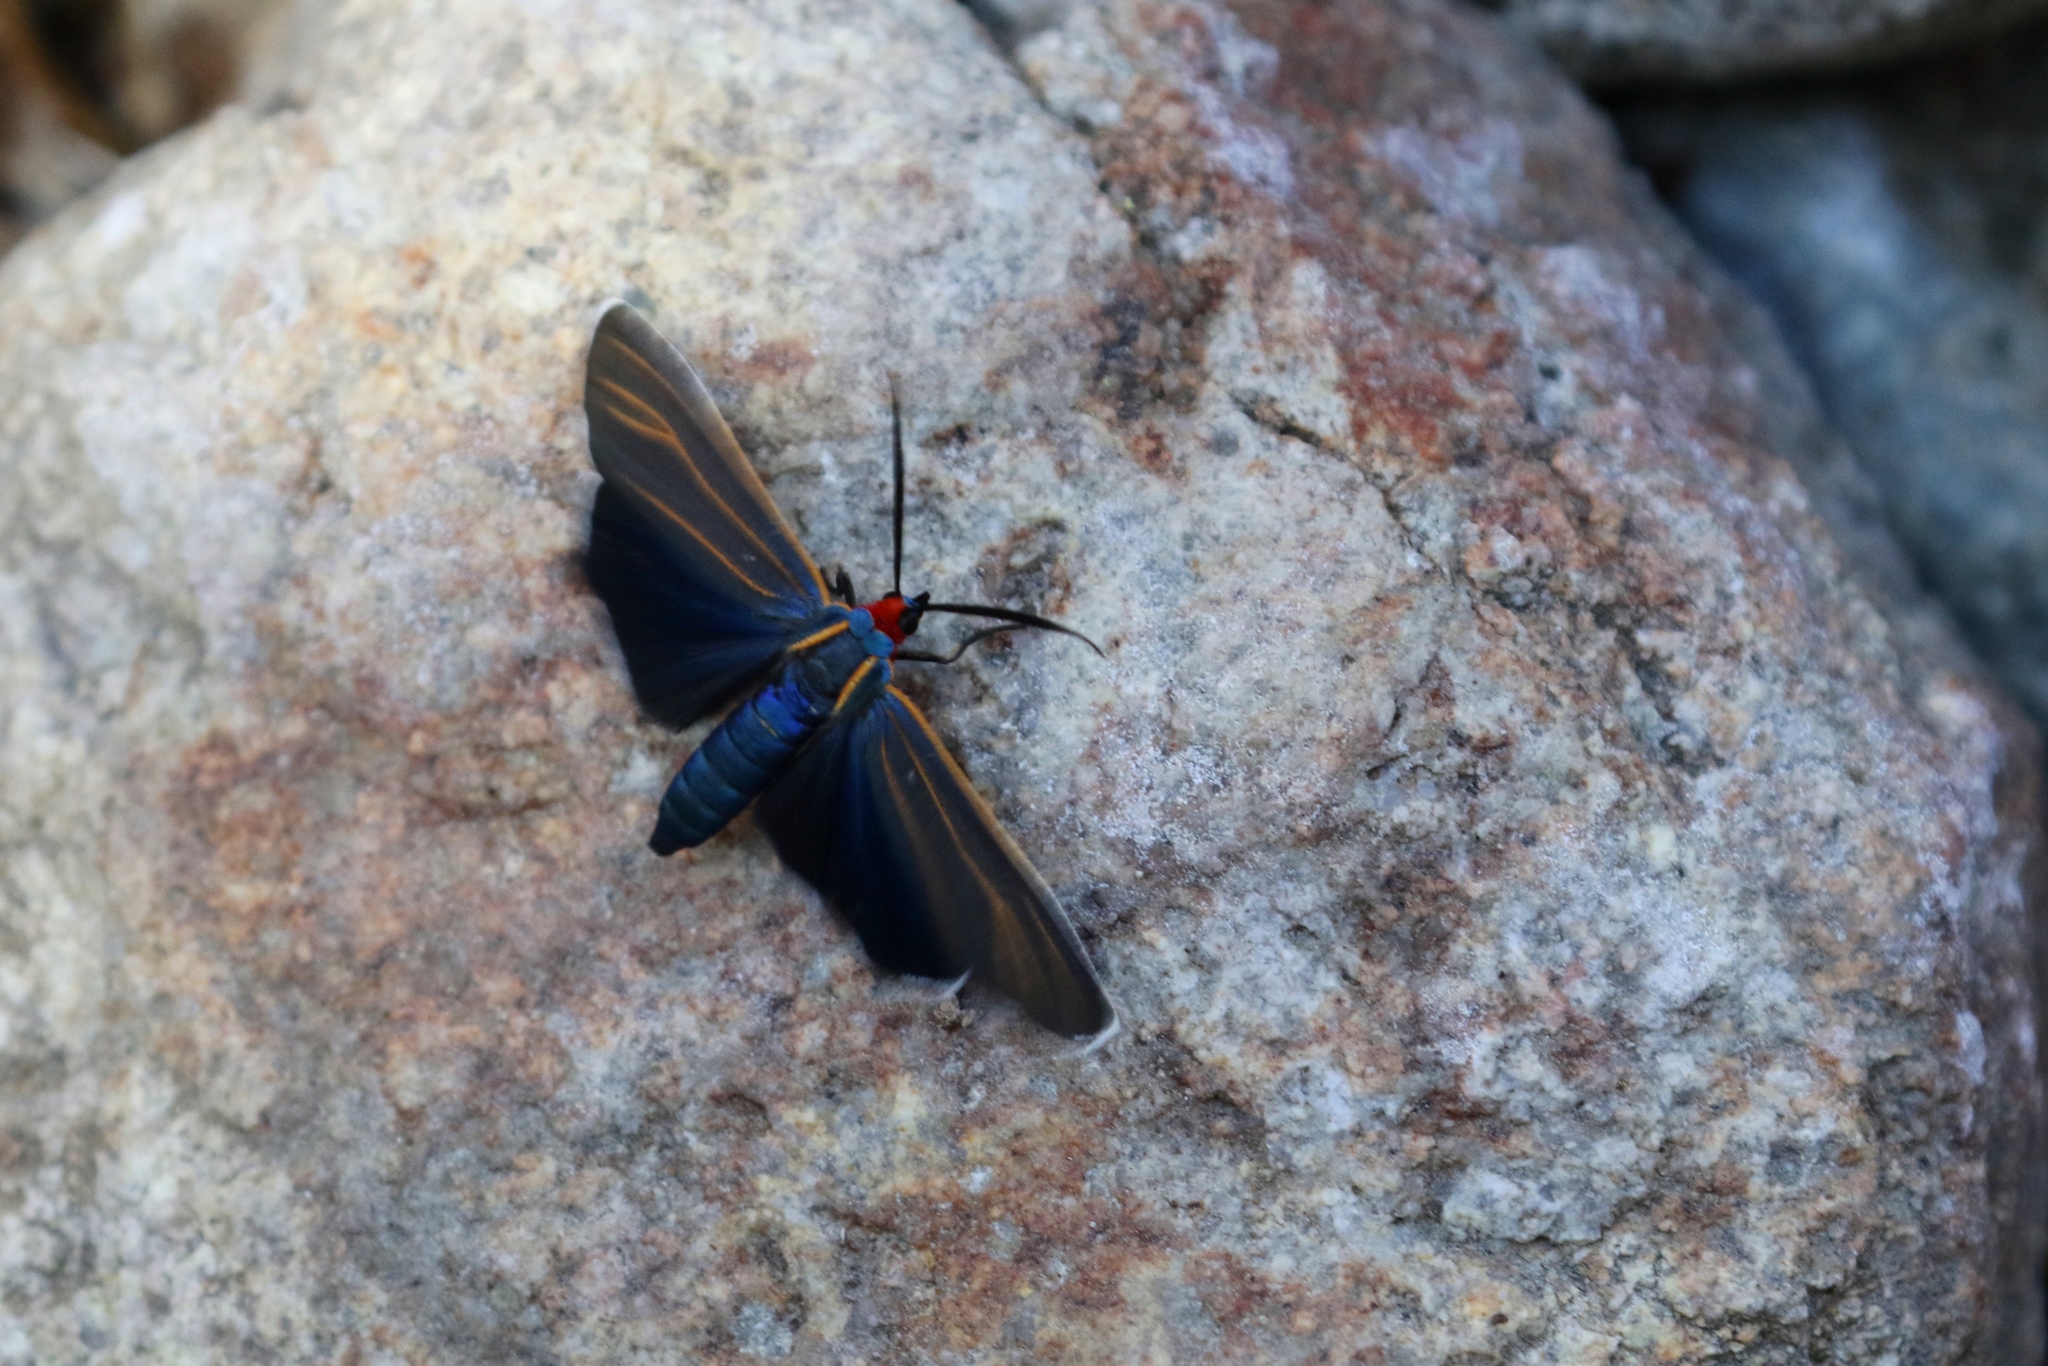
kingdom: Animalia
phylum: Arthropoda
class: Insecta
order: Lepidoptera
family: Erebidae
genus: Ctenucha
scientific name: Ctenucha venosa
